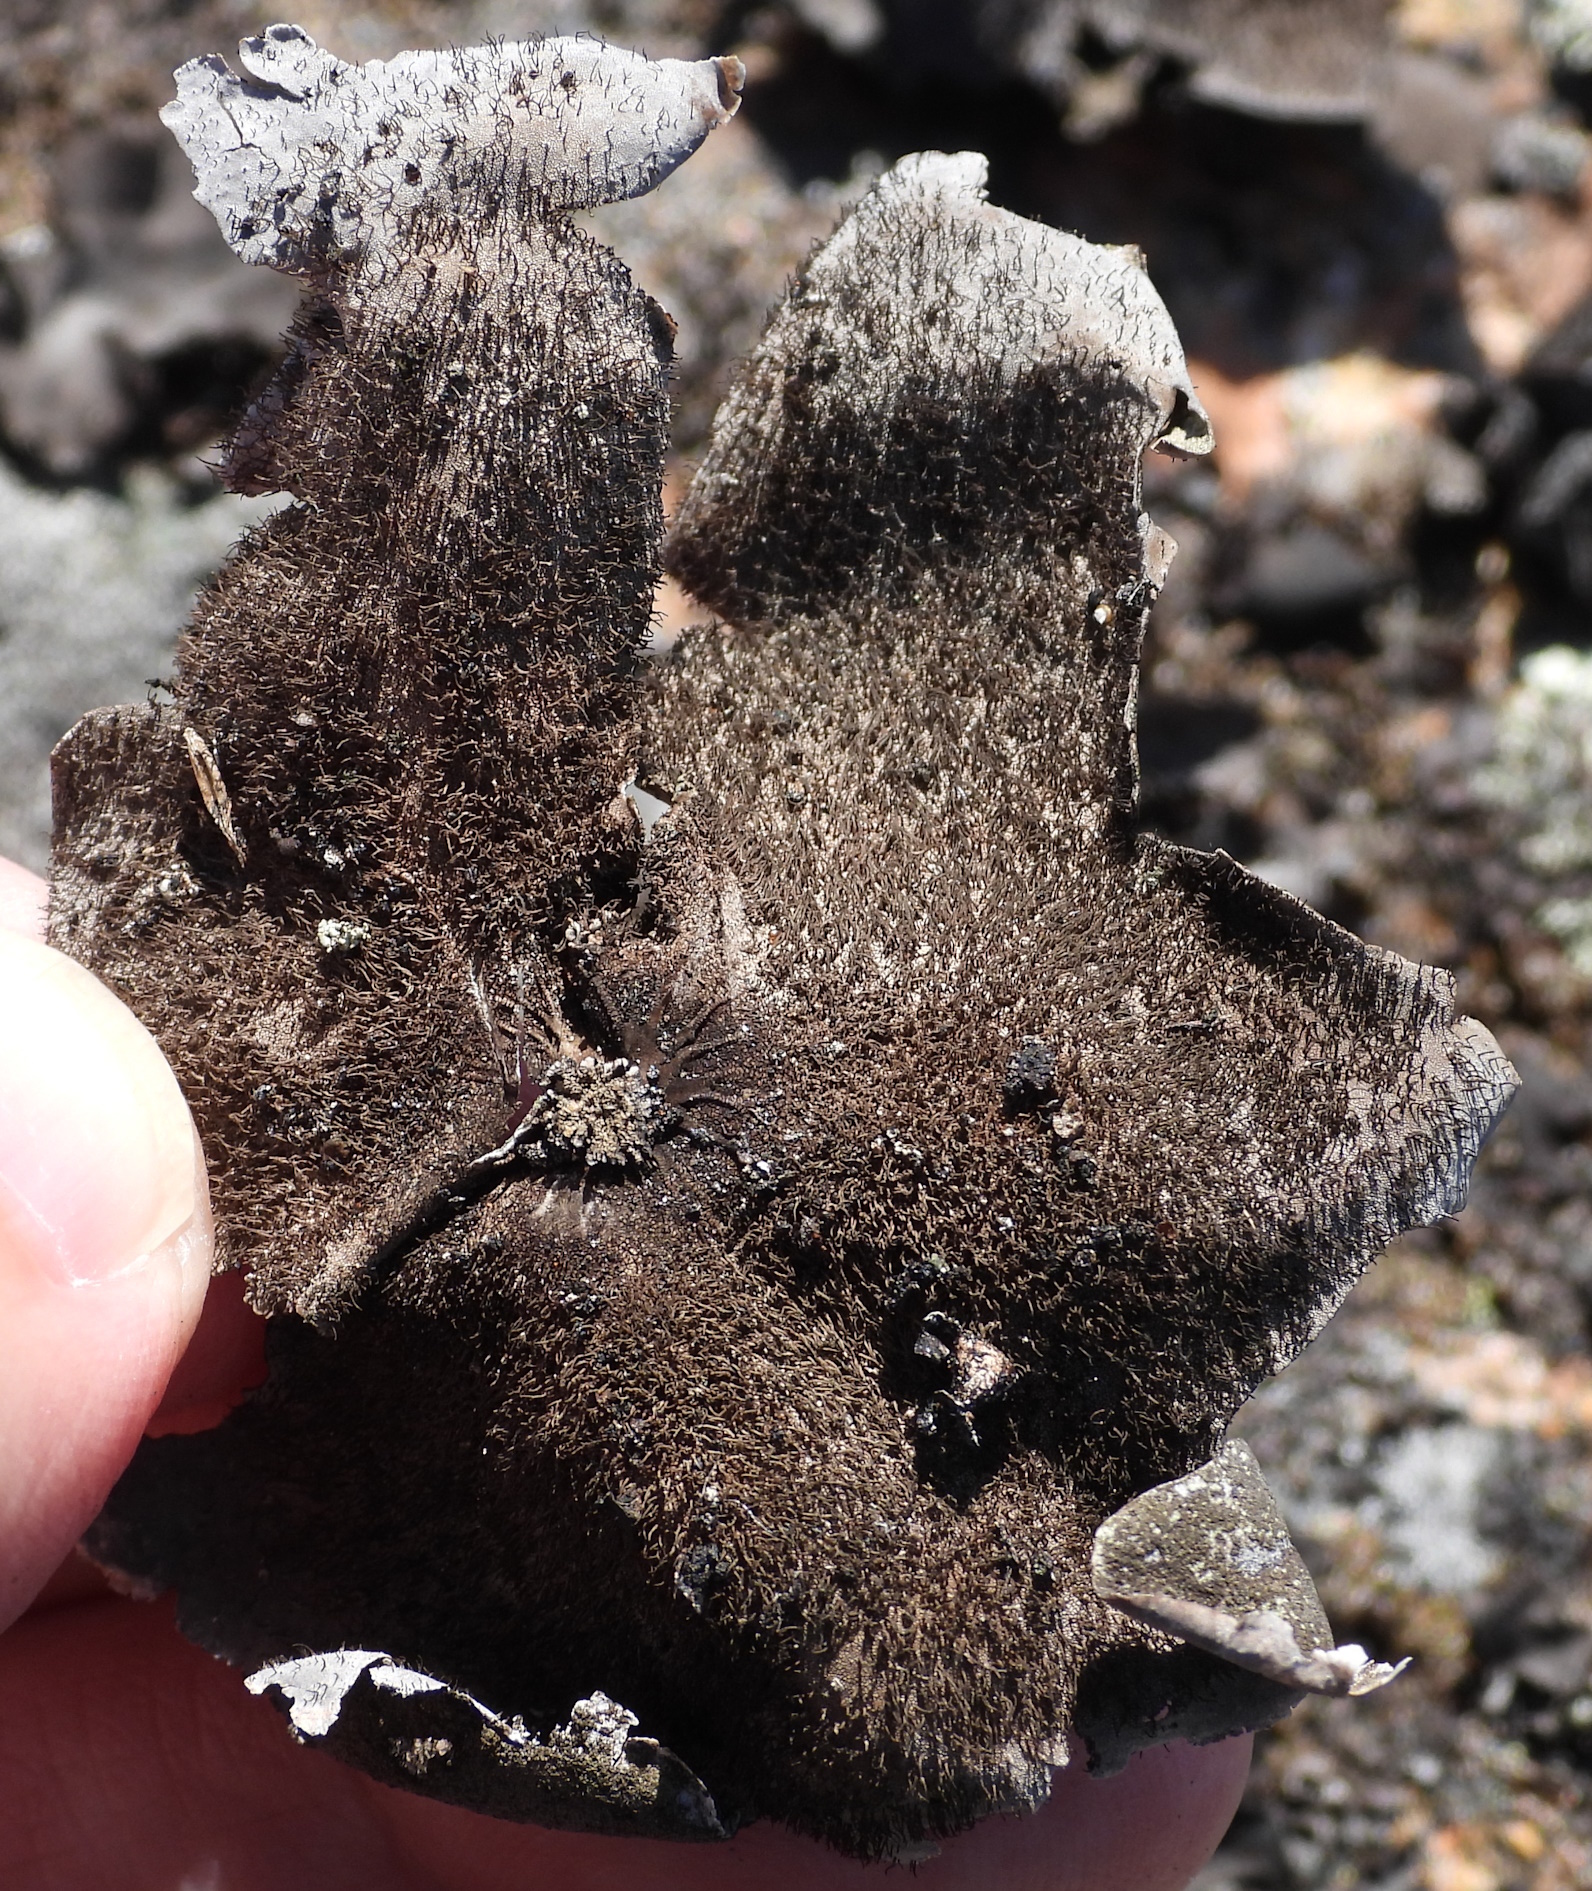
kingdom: Fungi
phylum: Ascomycota
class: Lecanoromycetes
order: Umbilicariales
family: Umbilicariaceae
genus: Umbilicaria
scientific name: Umbilicaria hirsuta
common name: Granulating rocktripe lichen
